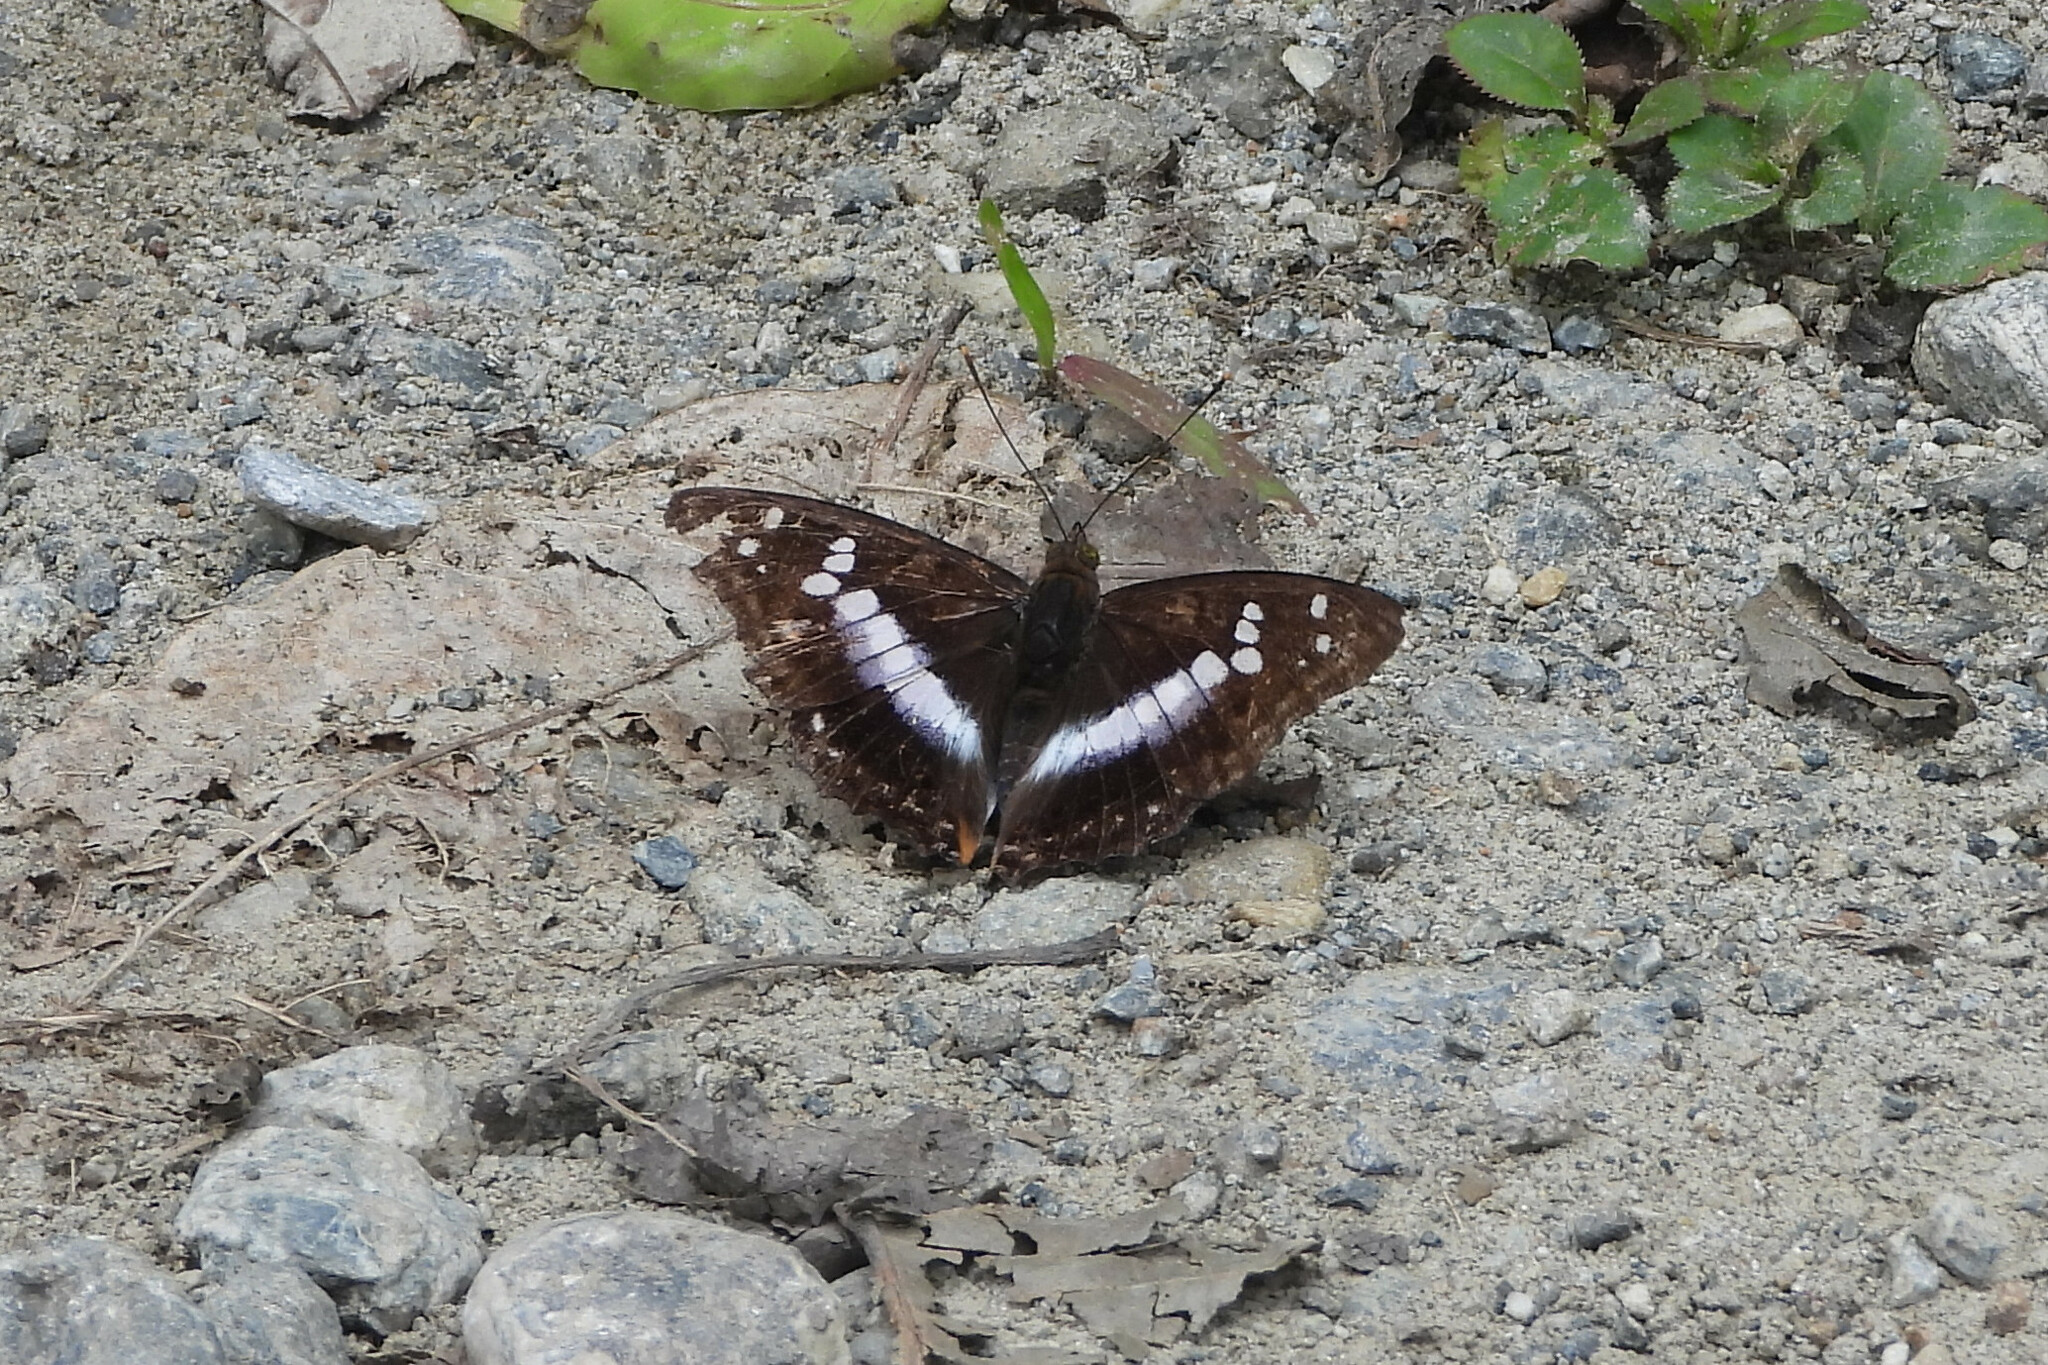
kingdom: Animalia
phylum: Arthropoda
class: Insecta
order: Lepidoptera
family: Nymphalidae
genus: Apatura
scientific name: Apatura Mimathyma ambica
